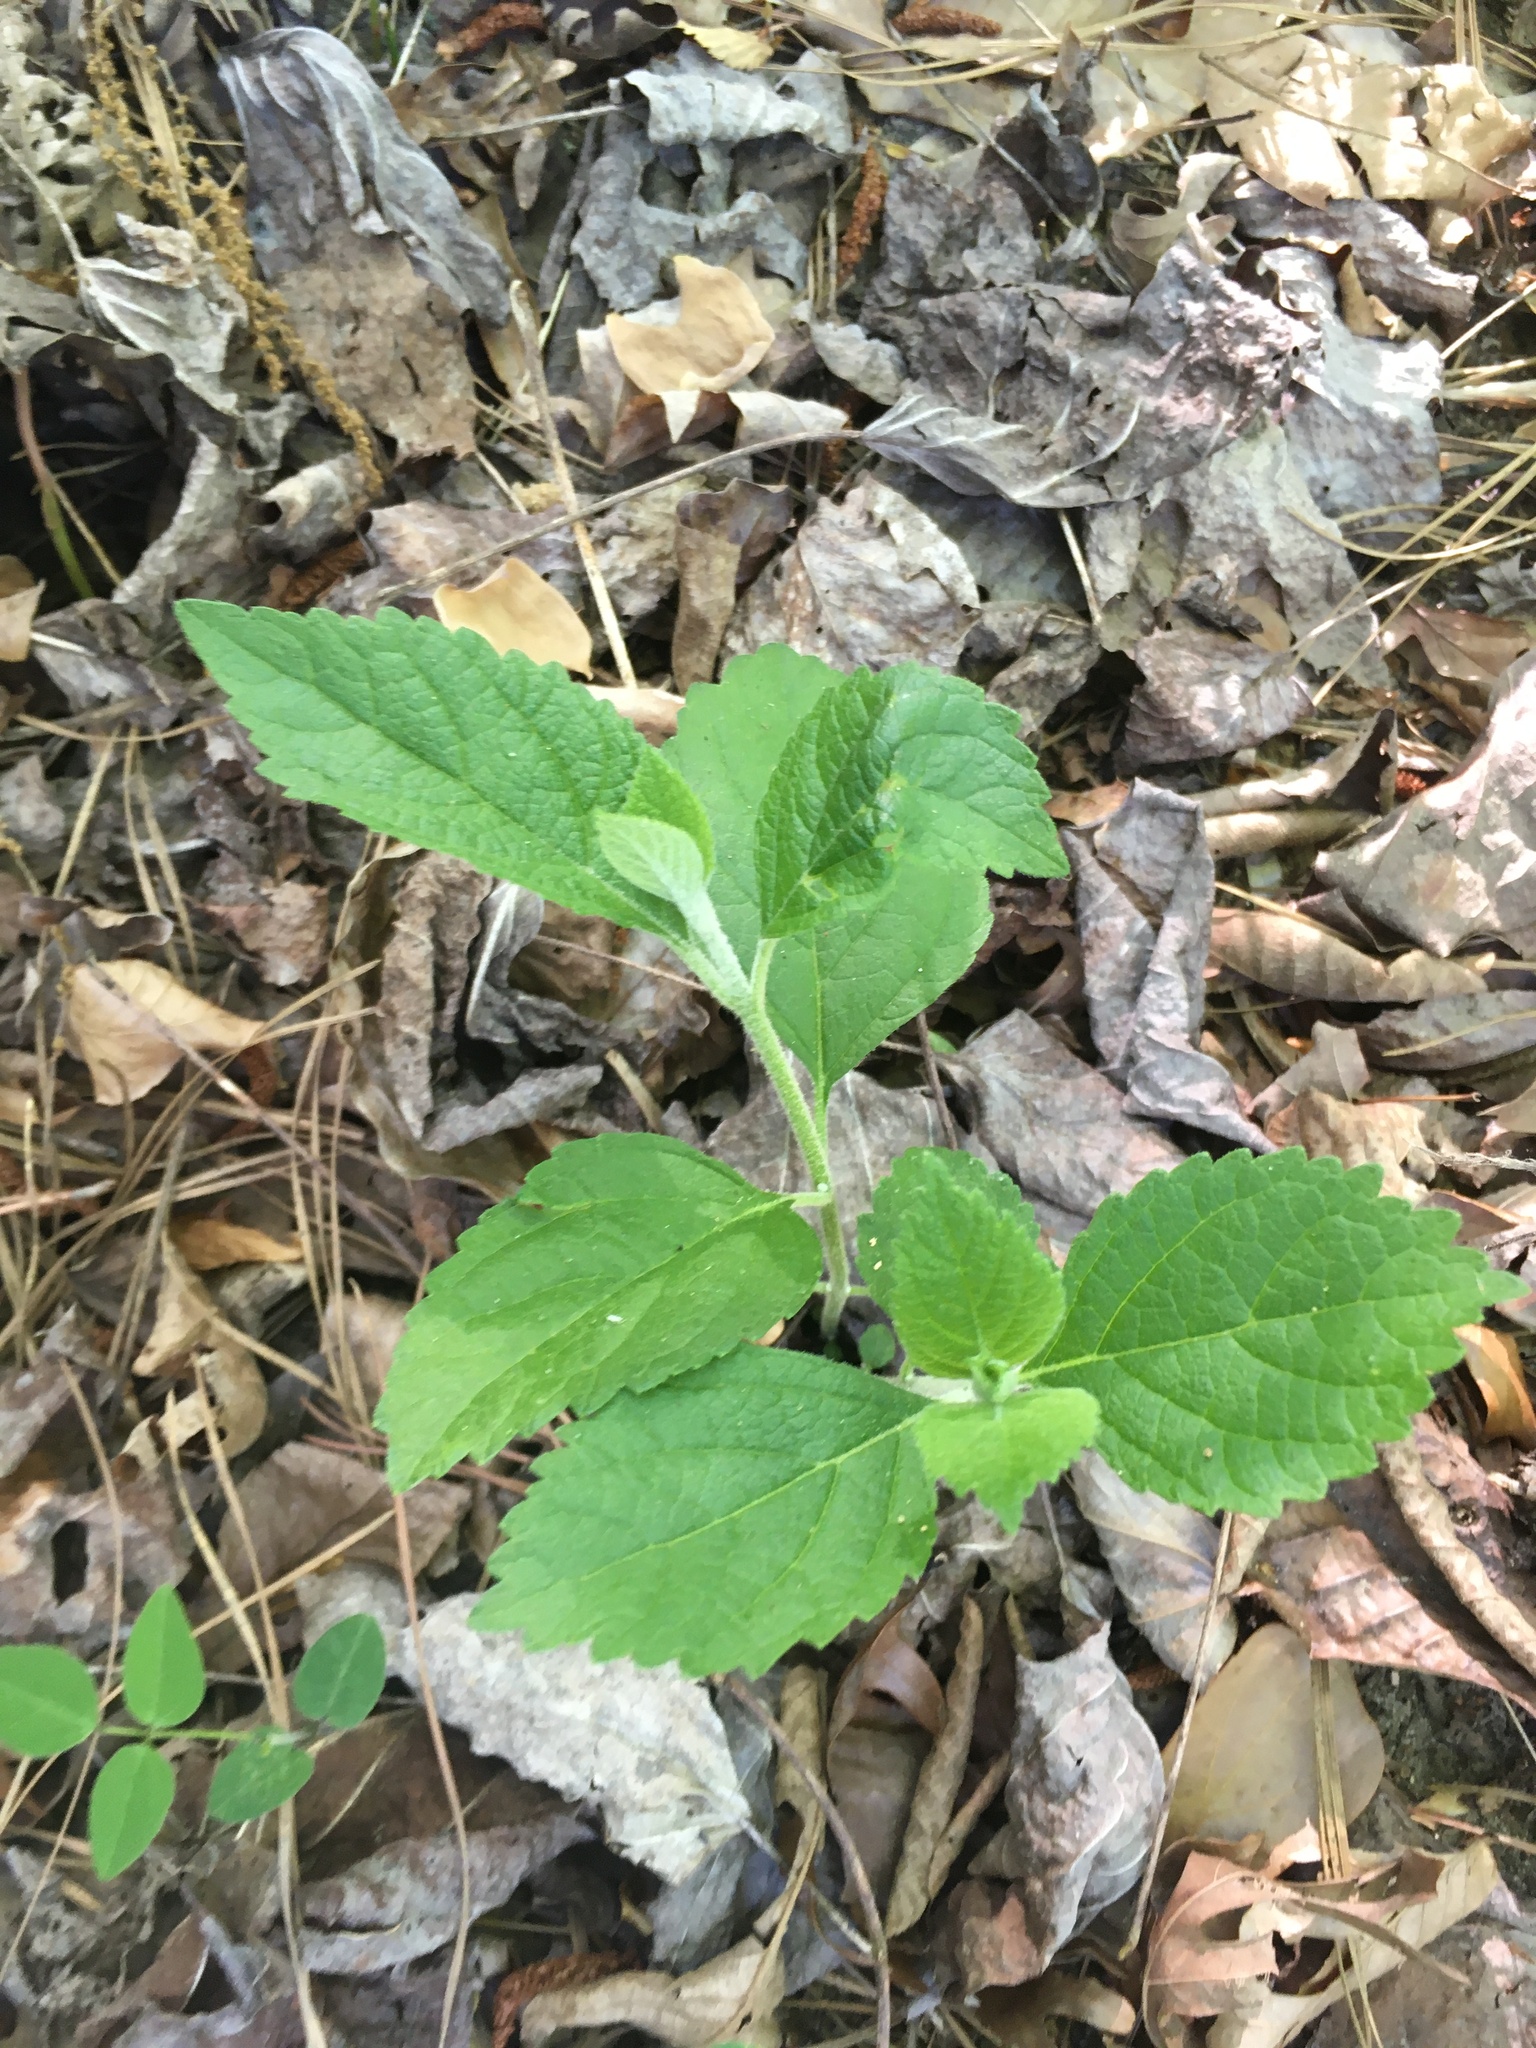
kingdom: Plantae
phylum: Tracheophyta
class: Magnoliopsida
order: Lamiales
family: Lamiaceae
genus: Callicarpa
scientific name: Callicarpa americana
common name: American beautyberry
